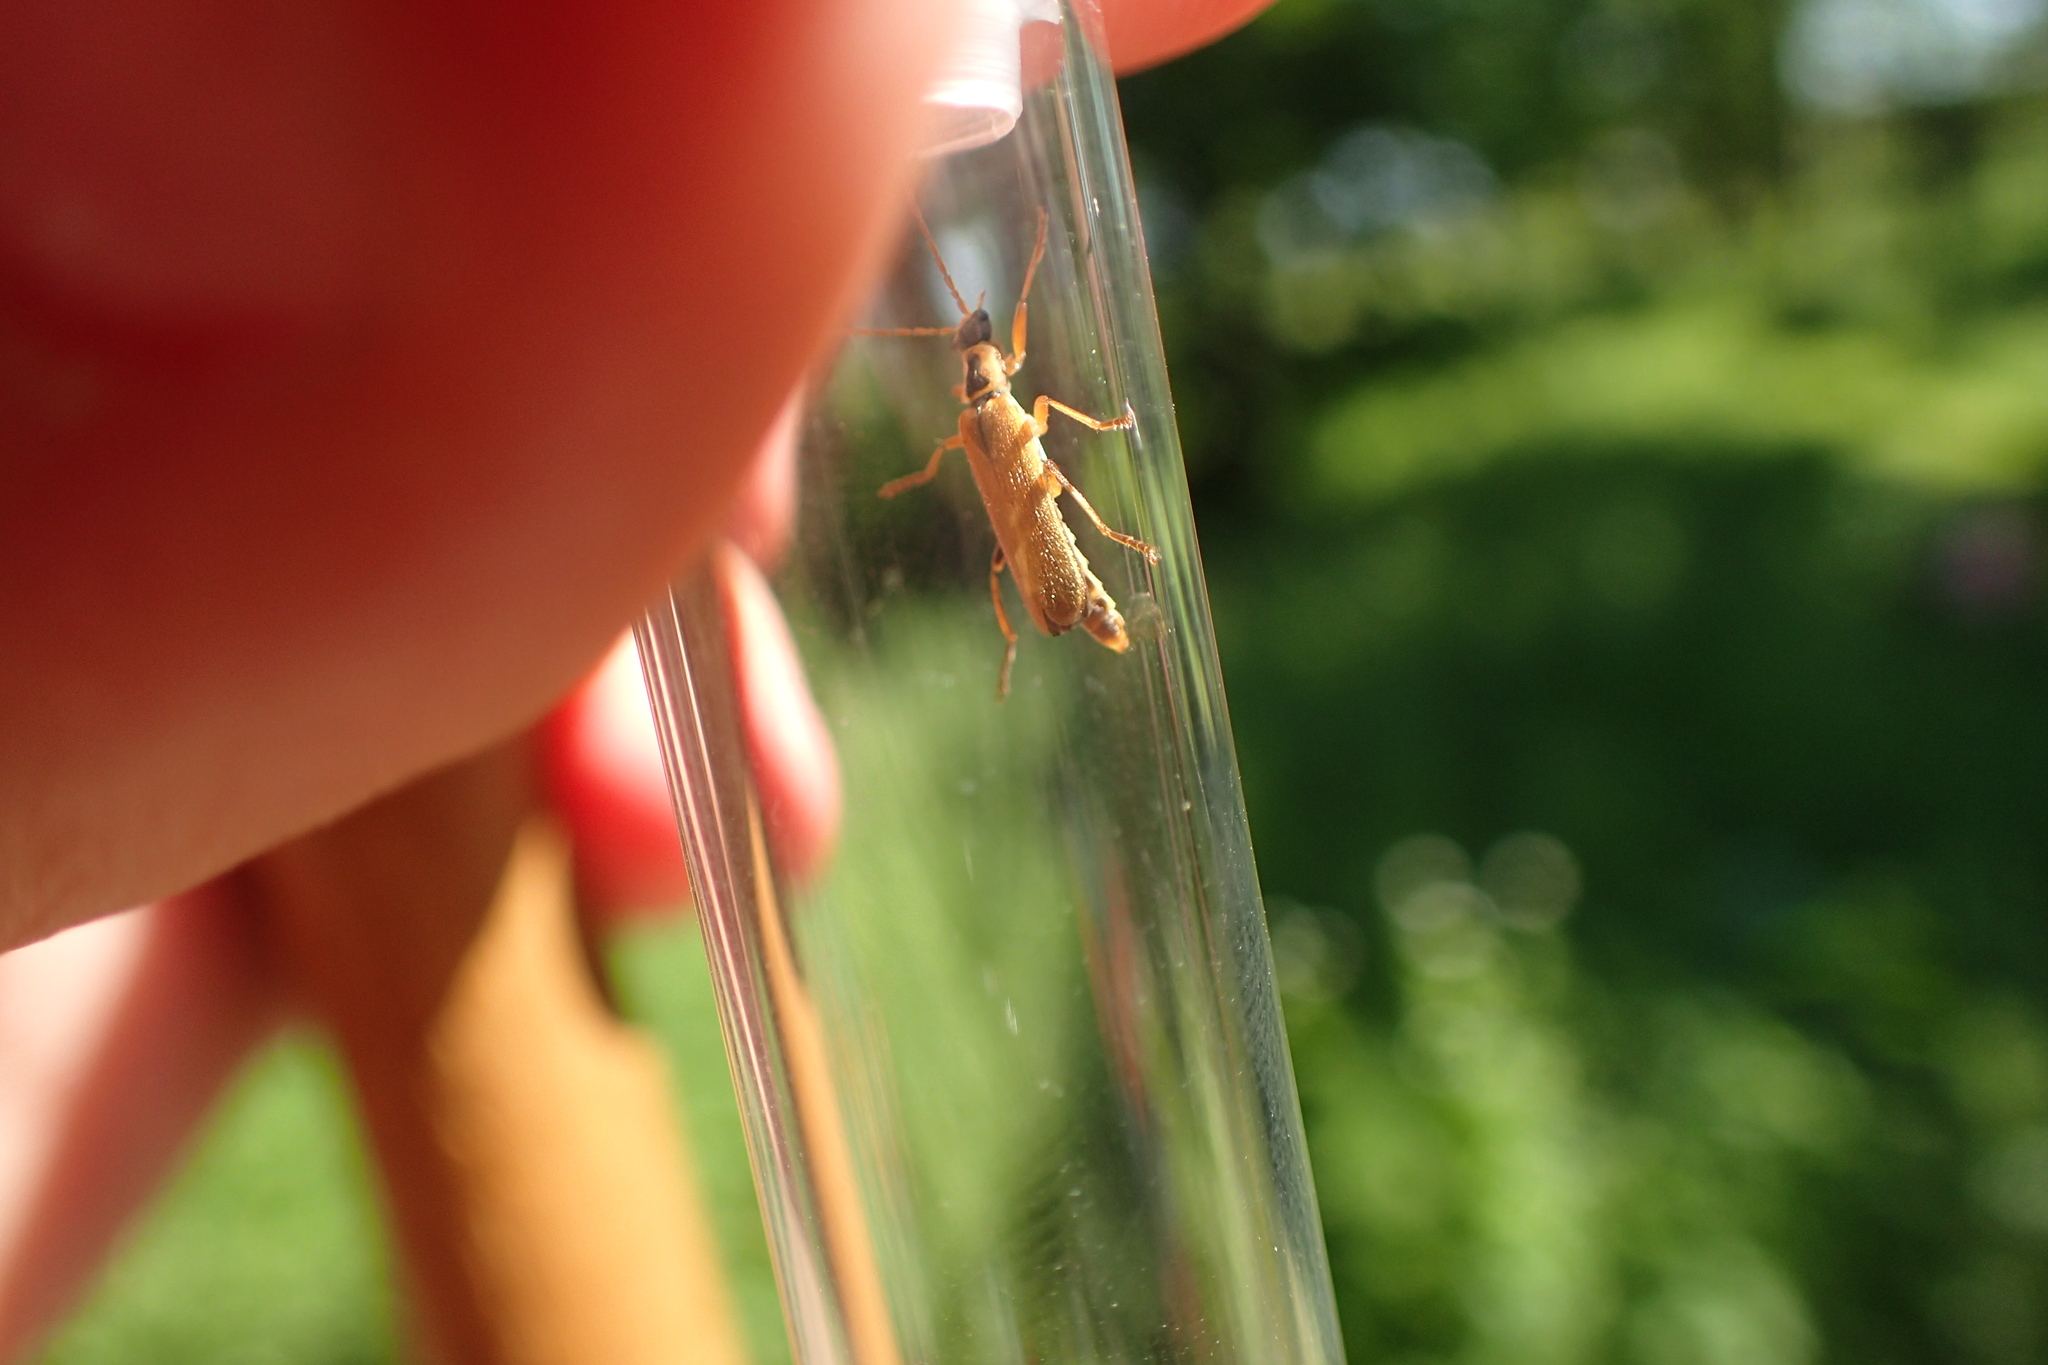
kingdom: Animalia
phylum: Arthropoda
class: Insecta
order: Coleoptera
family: Cantharidae
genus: Cantharis
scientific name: Cantharis decipiens
